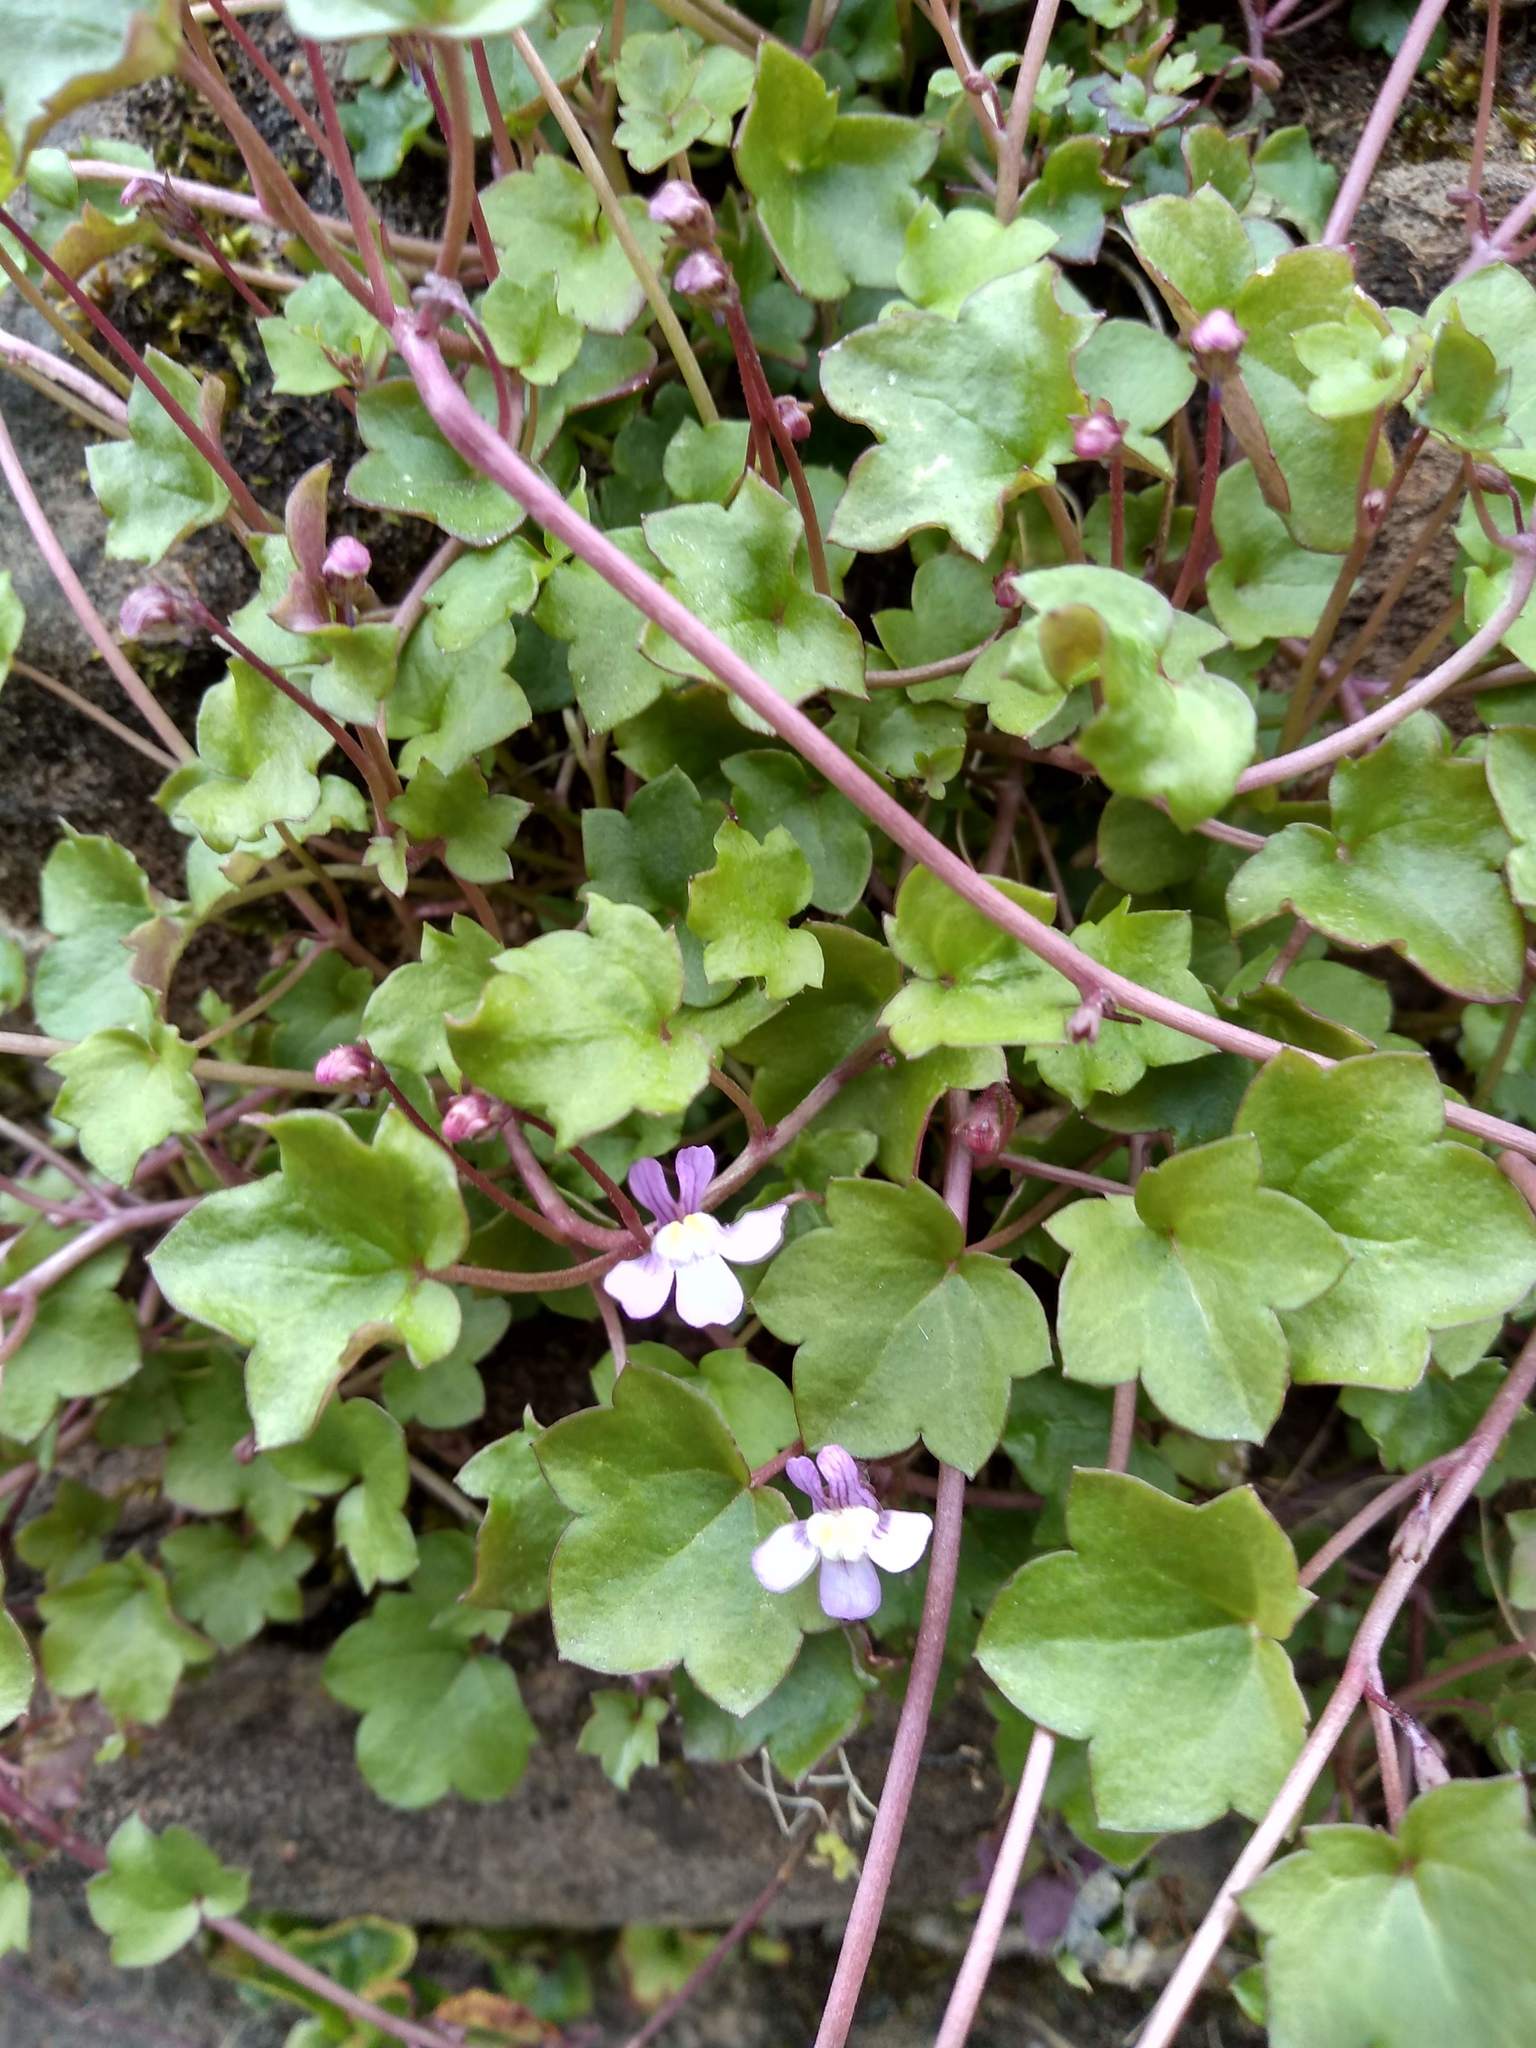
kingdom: Plantae
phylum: Tracheophyta
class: Magnoliopsida
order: Lamiales
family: Plantaginaceae
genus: Cymbalaria
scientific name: Cymbalaria muralis
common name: Ivy-leaved toadflax
